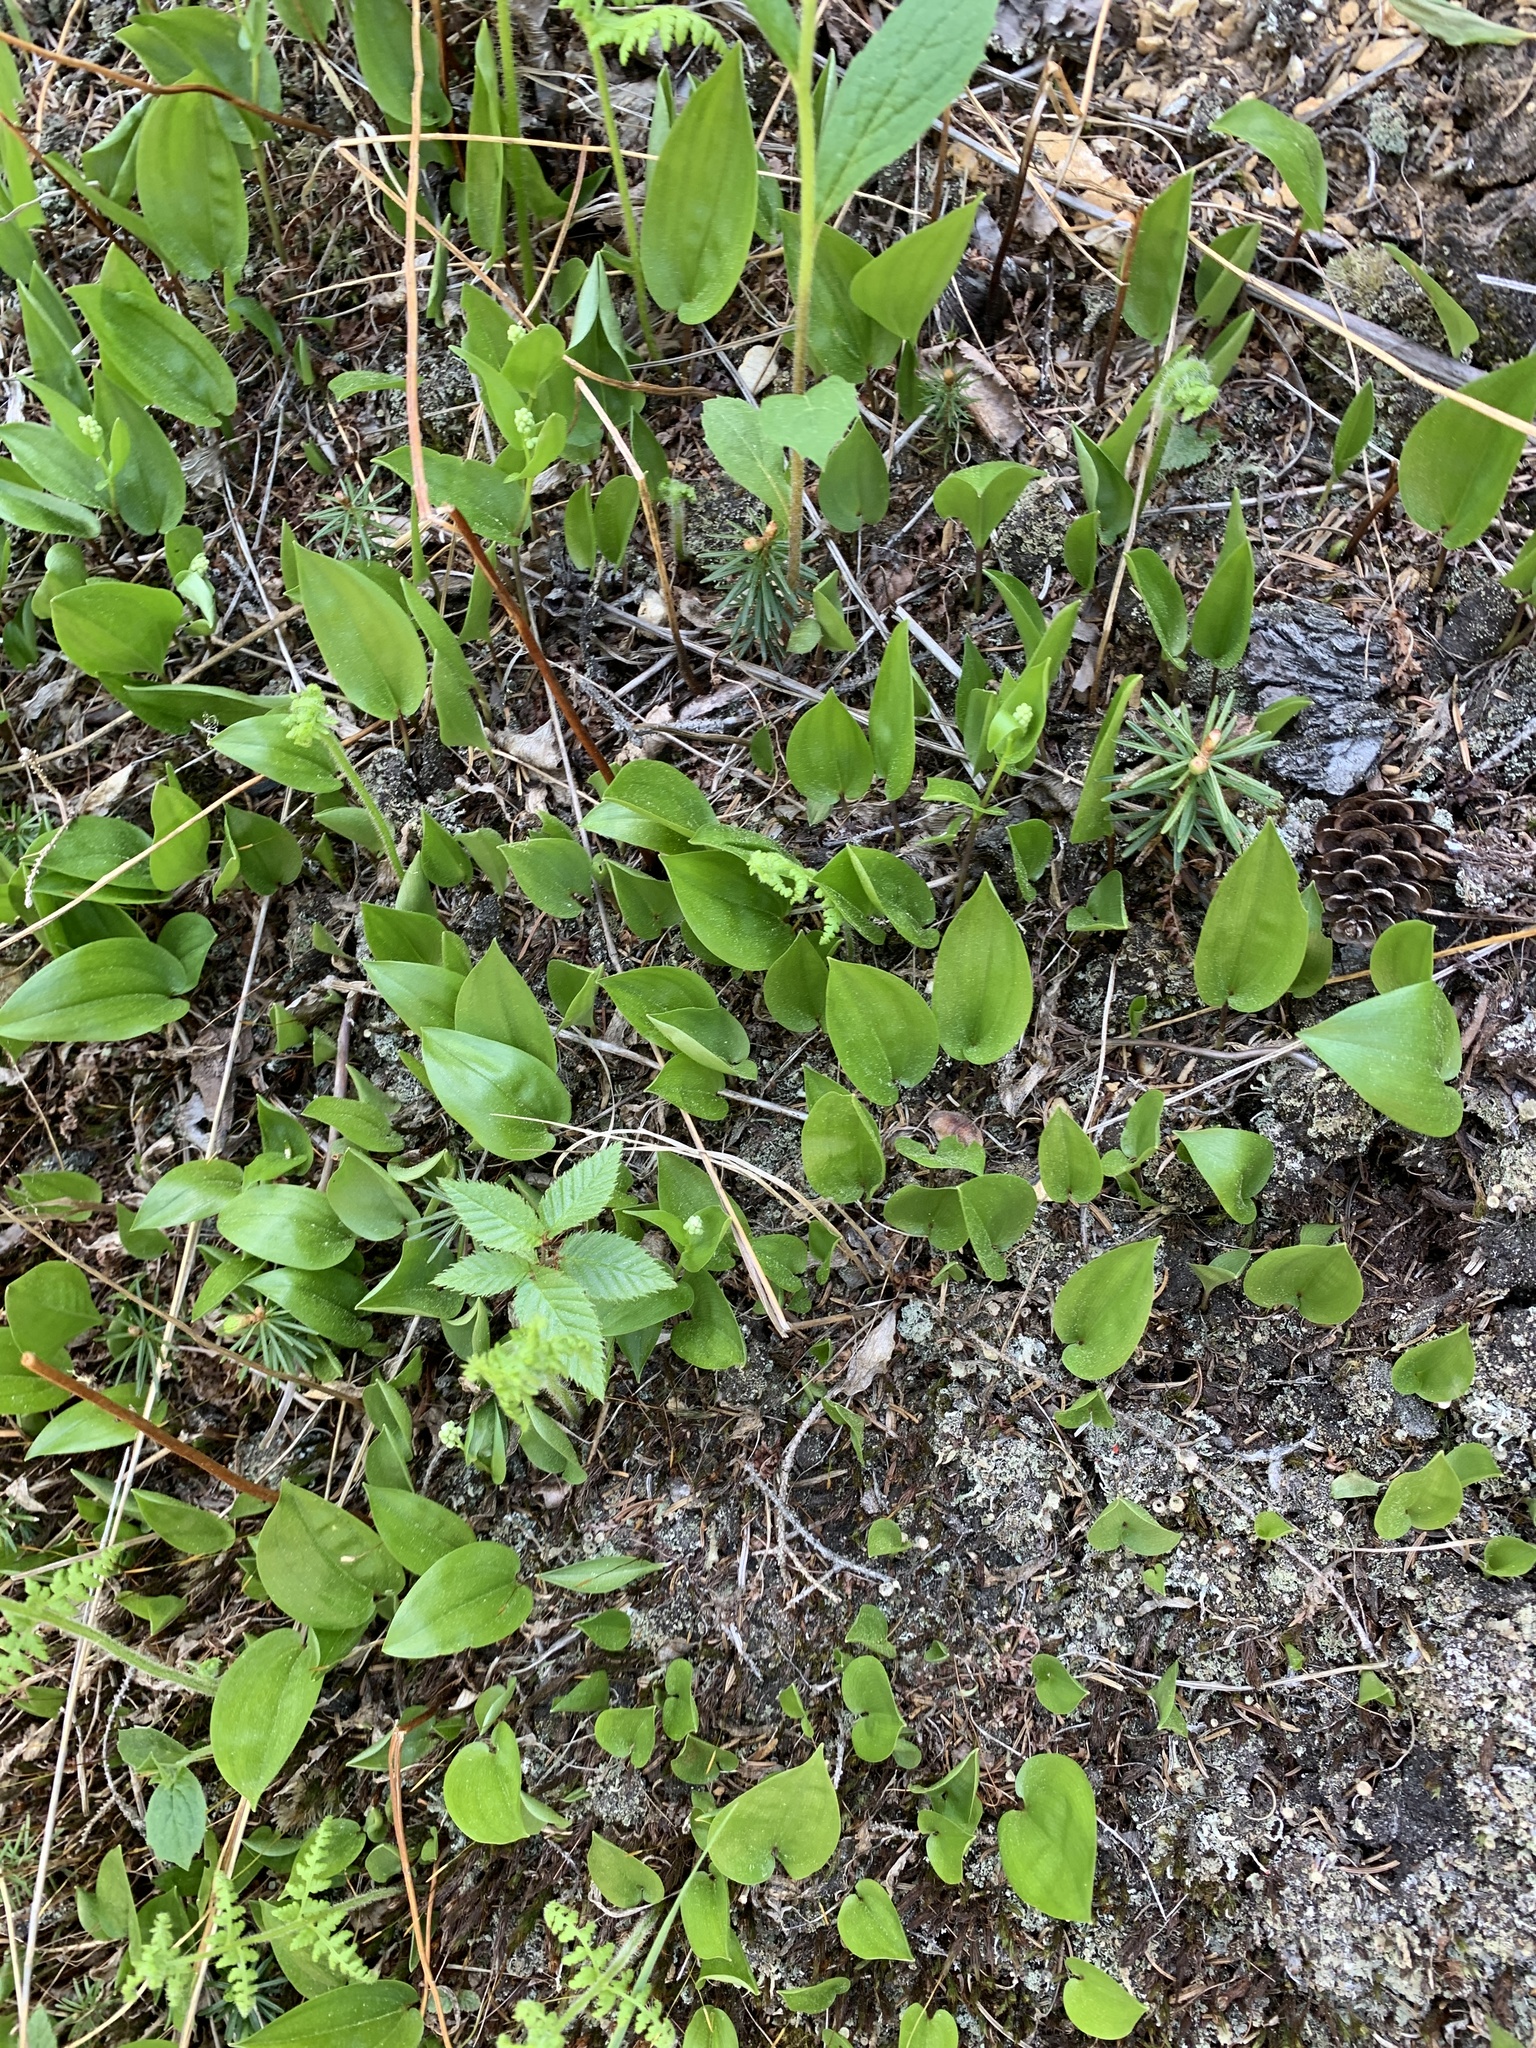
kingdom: Plantae
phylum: Tracheophyta
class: Liliopsida
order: Asparagales
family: Asparagaceae
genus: Maianthemum
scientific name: Maianthemum canadense
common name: False lily-of-the-valley
